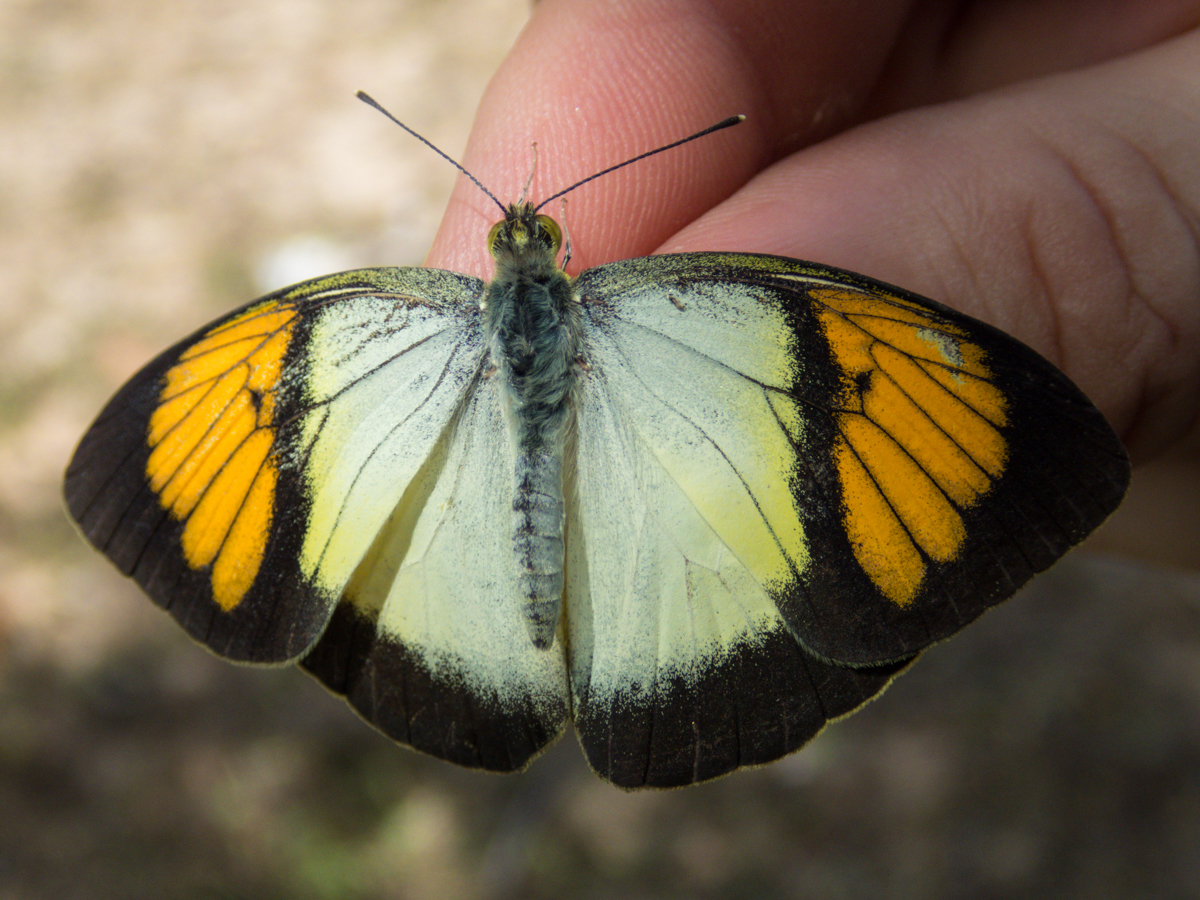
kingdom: Animalia
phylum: Arthropoda
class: Insecta
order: Lepidoptera
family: Pieridae
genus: Ixias
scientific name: Ixias pyrene
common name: Yellow orange tip
